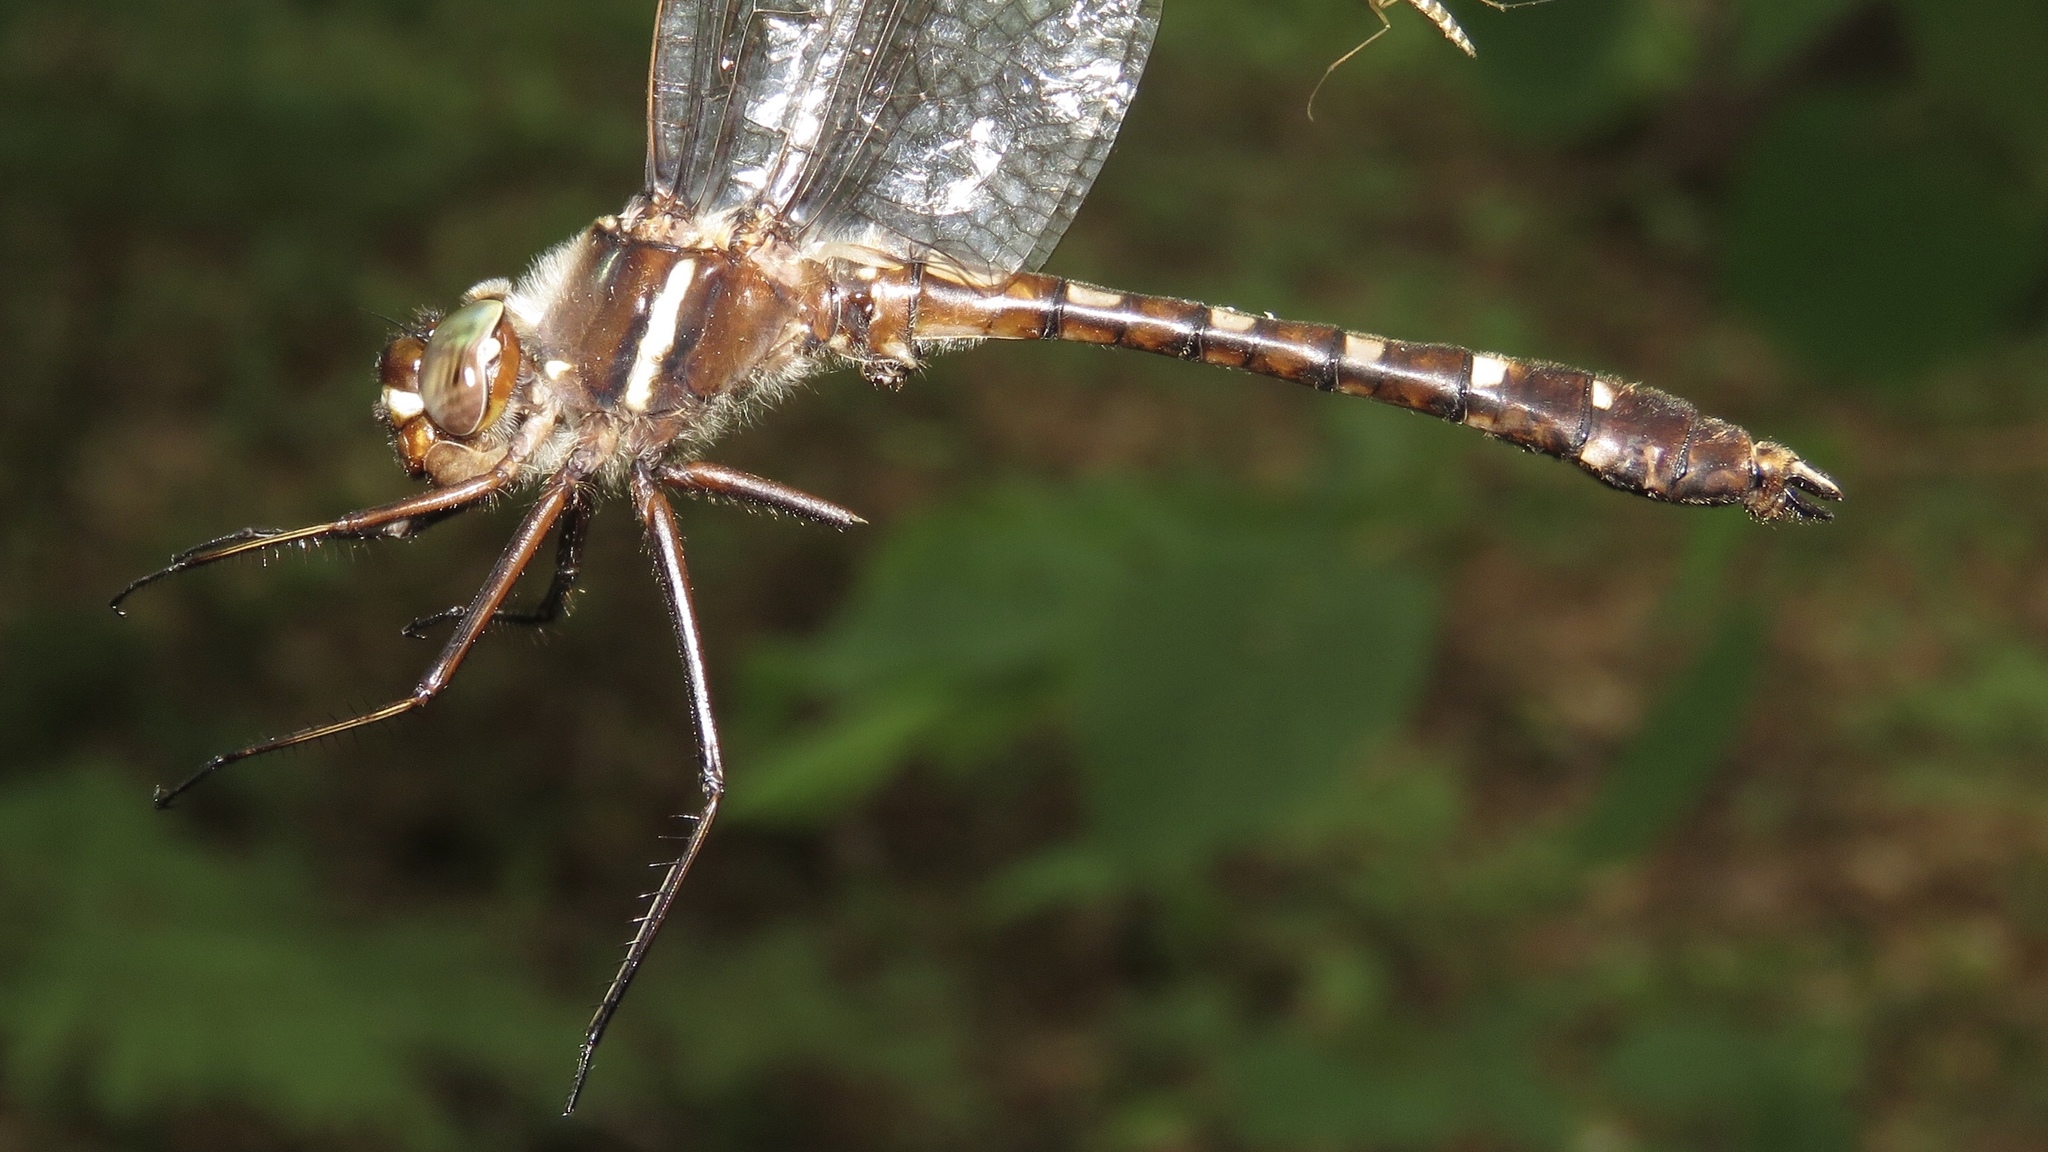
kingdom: Animalia
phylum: Arthropoda
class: Insecta
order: Odonata
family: Macromiidae
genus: Didymops
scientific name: Didymops transversa
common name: Stream cruiser
